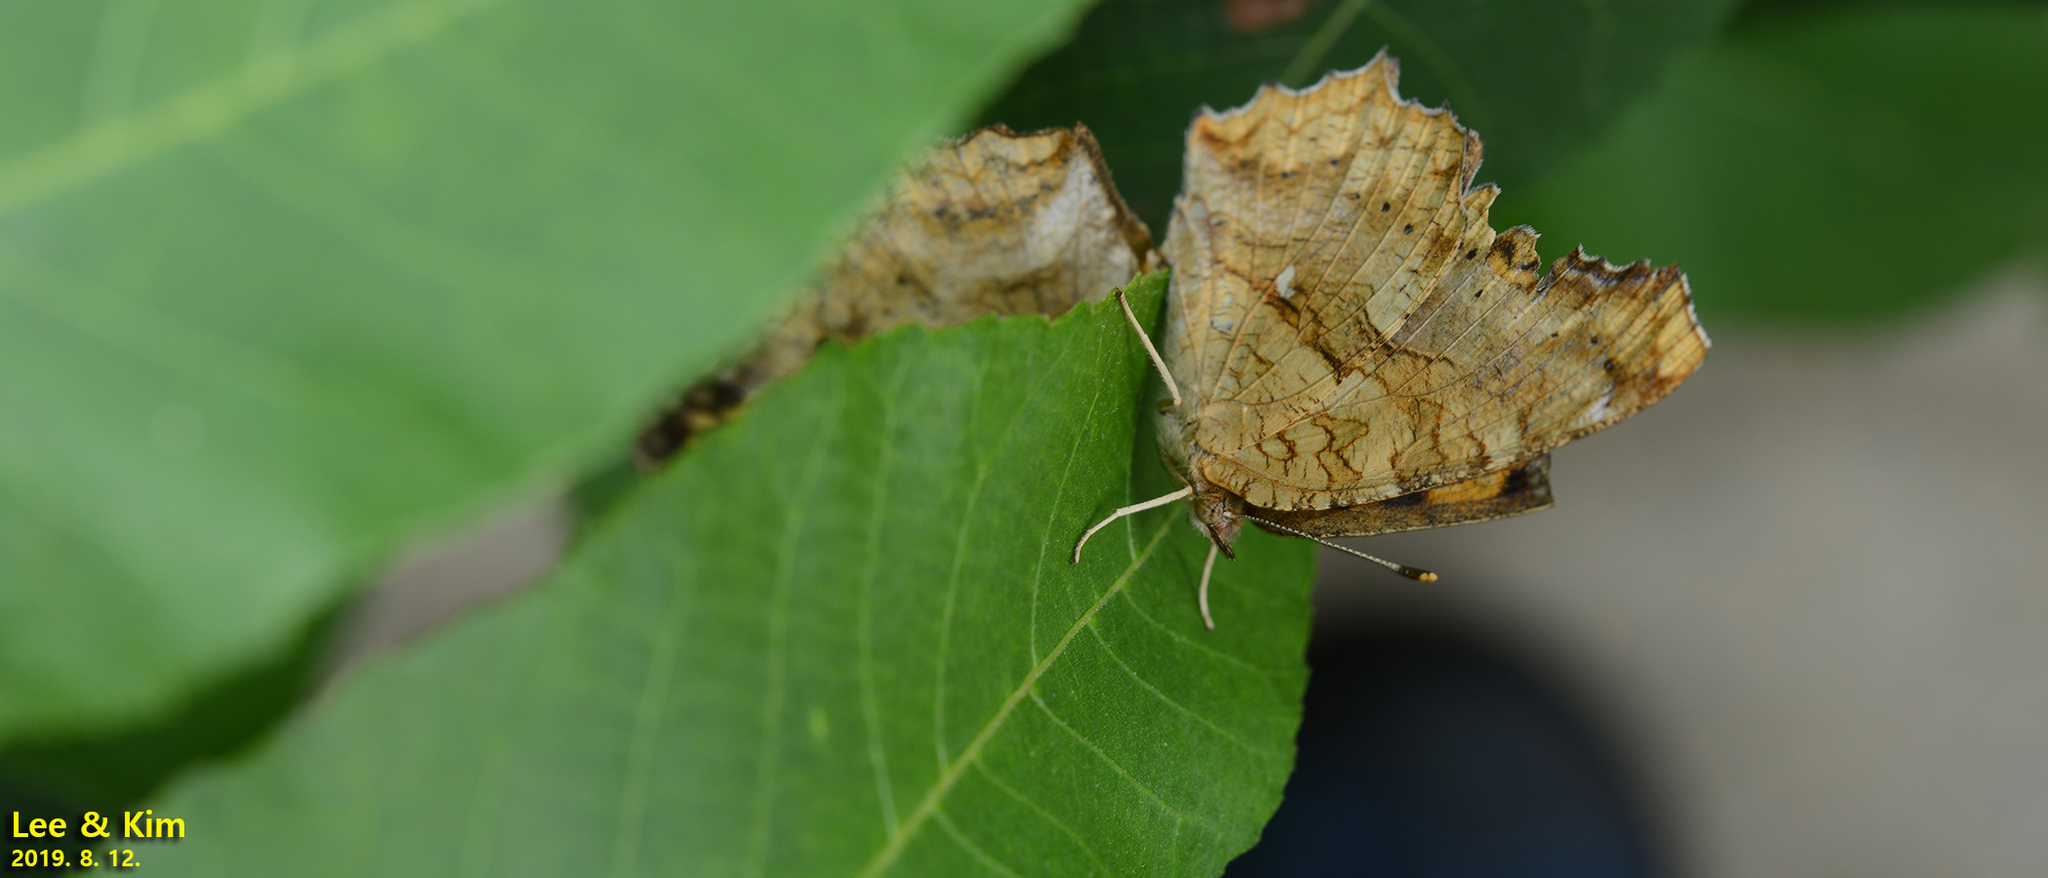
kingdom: Animalia
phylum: Arthropoda
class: Insecta
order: Lepidoptera
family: Nymphalidae
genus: Polygonia
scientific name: Polygonia c-aureum
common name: Asian comma
